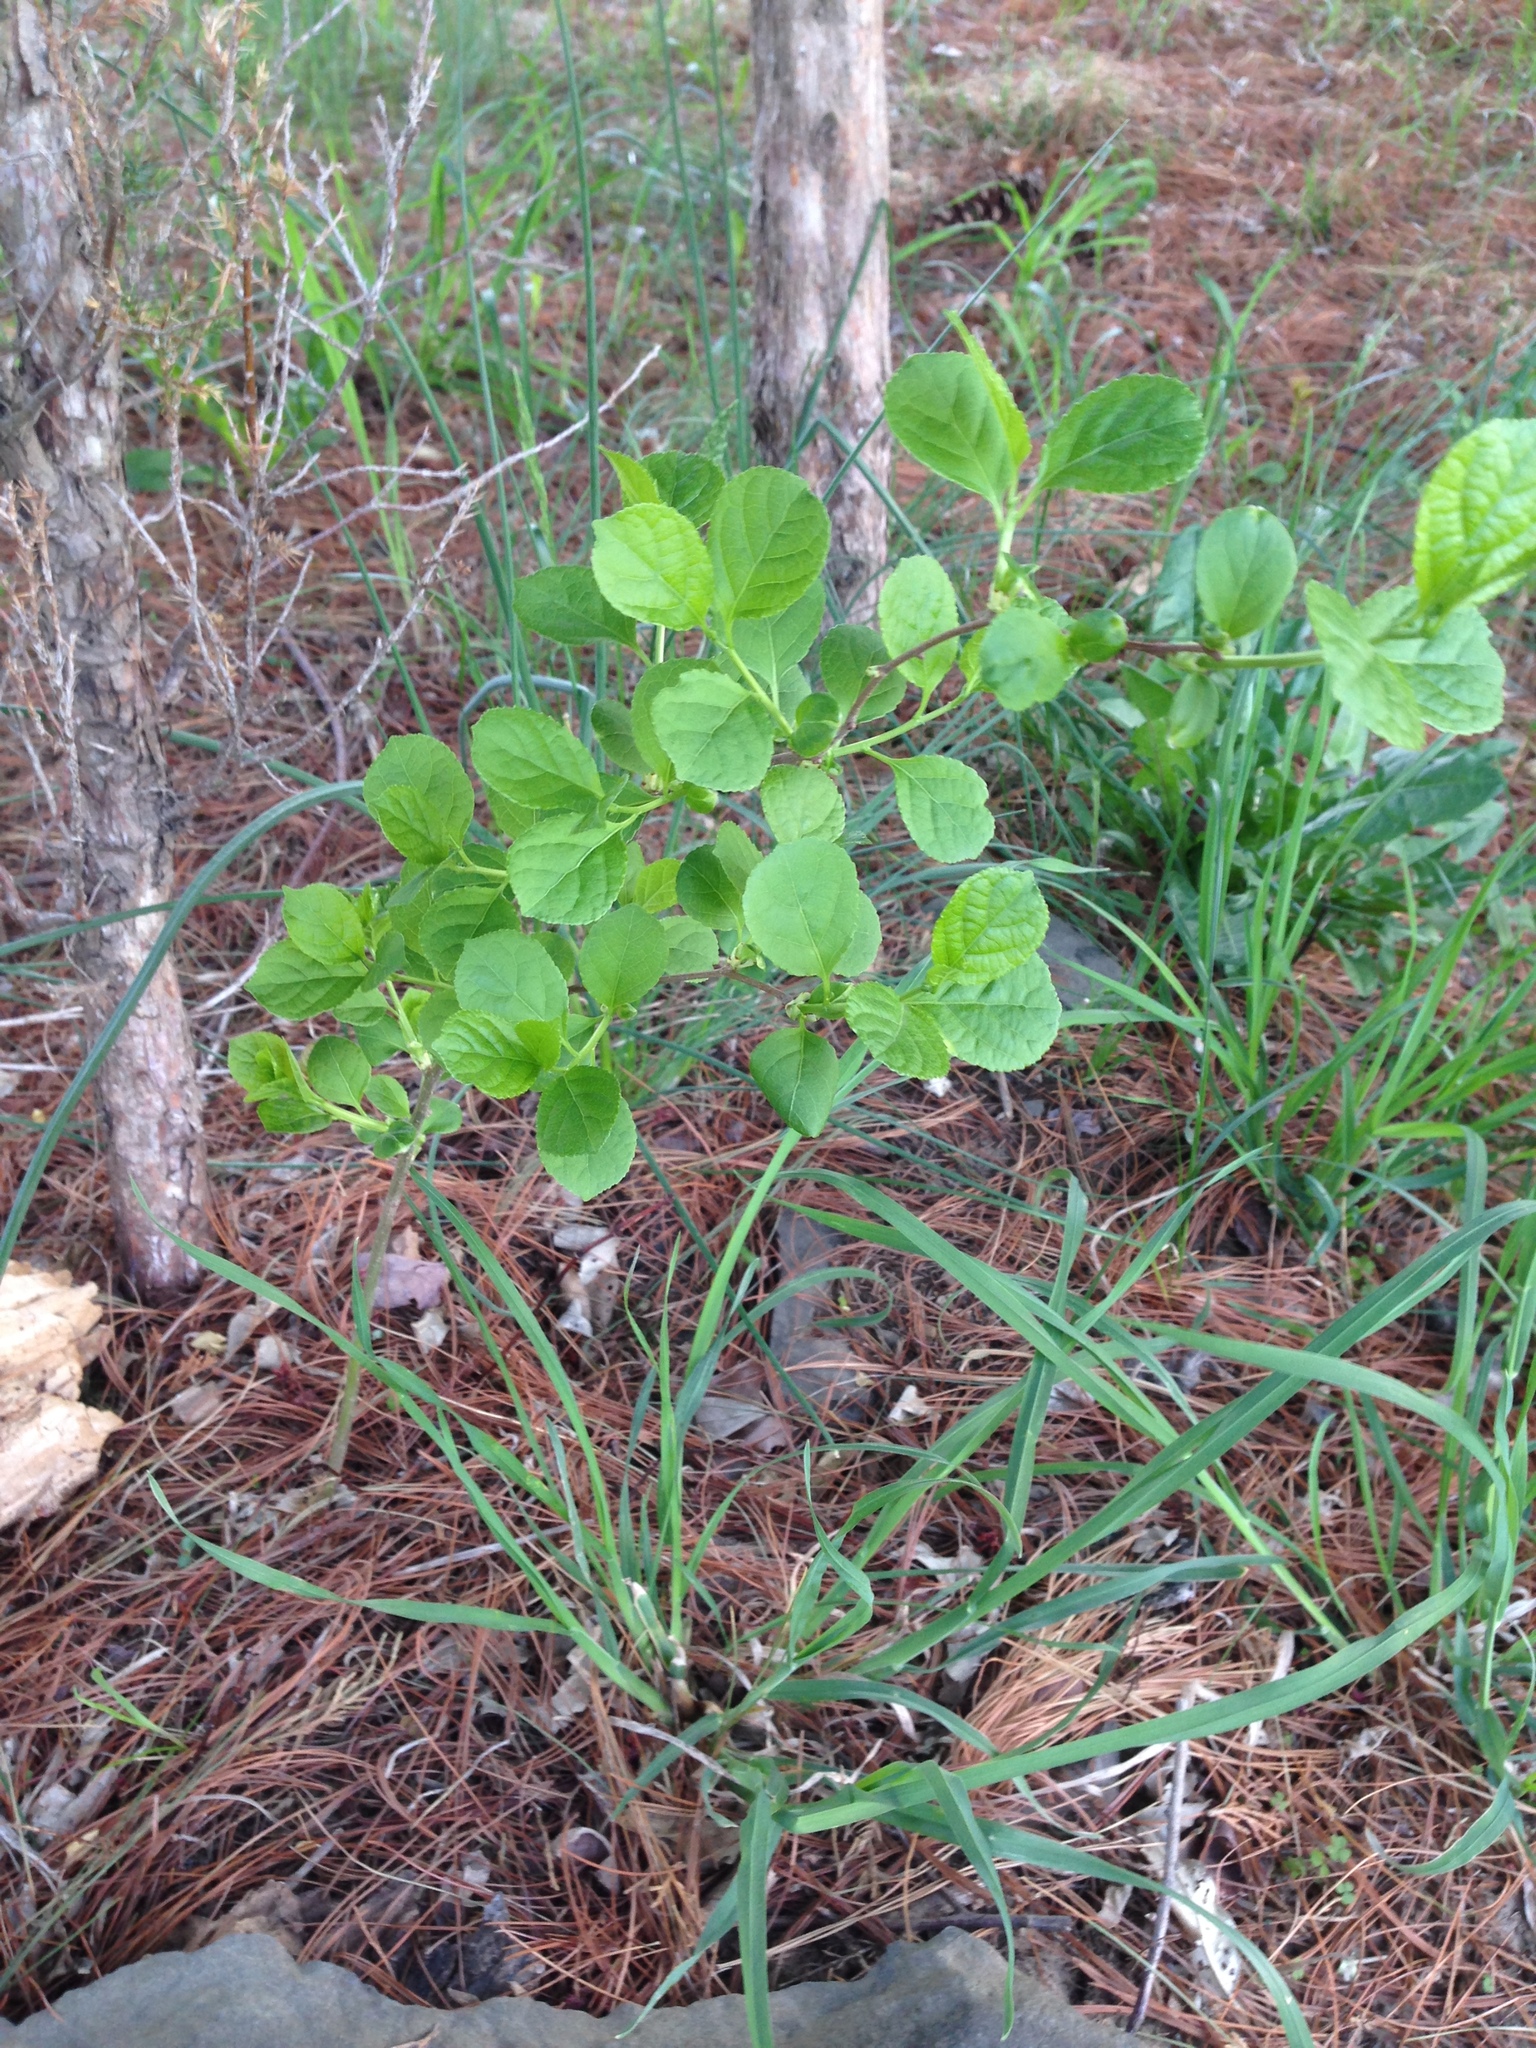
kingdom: Plantae
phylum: Tracheophyta
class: Magnoliopsida
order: Celastrales
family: Celastraceae
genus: Celastrus
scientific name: Celastrus orbiculatus
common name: Oriental bittersweet
